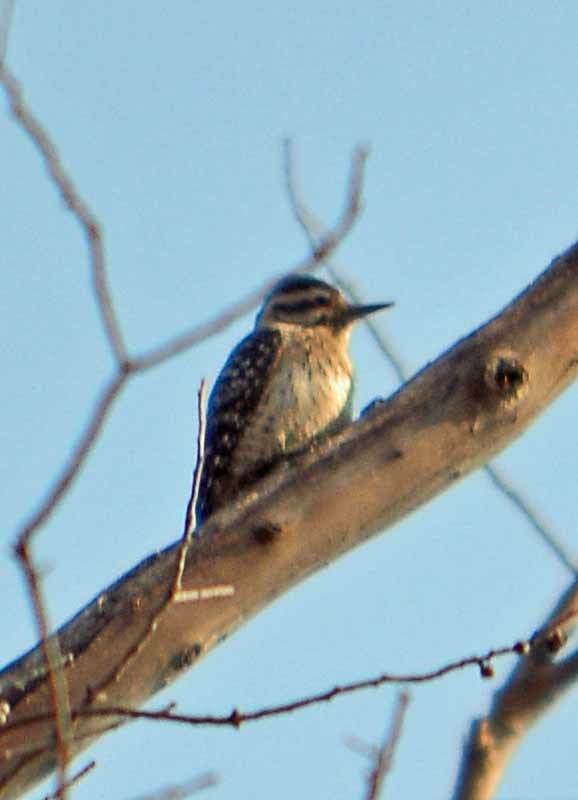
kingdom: Animalia
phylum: Chordata
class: Aves
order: Piciformes
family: Picidae
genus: Dryobates
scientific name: Dryobates scalaris
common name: Ladder-backed woodpecker
